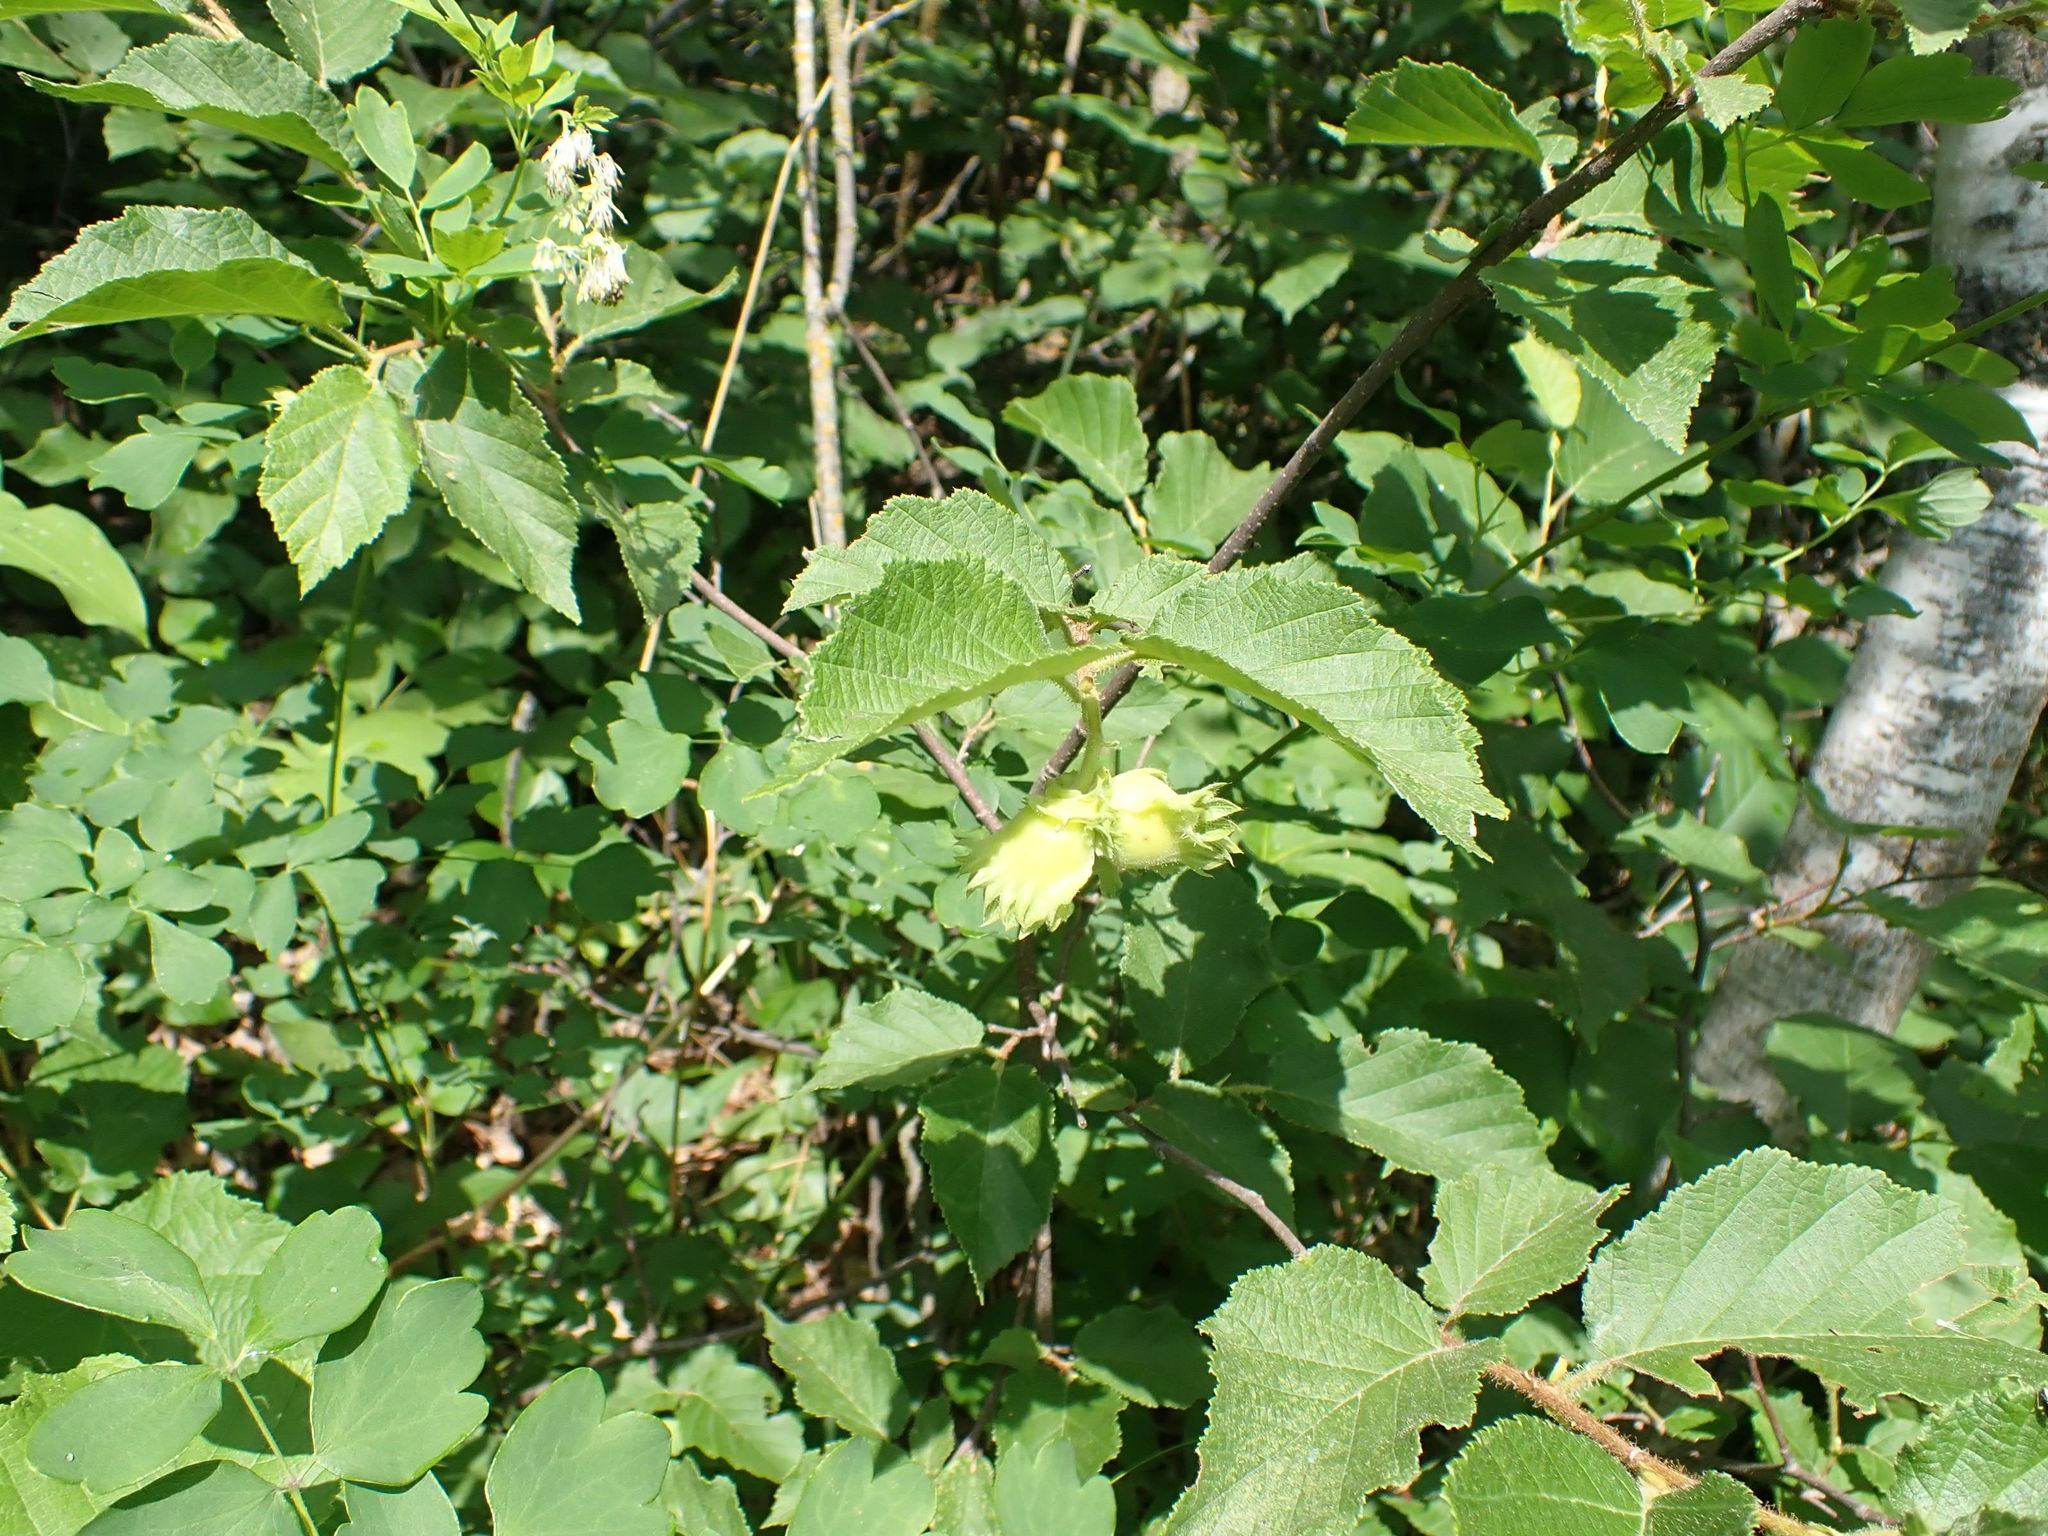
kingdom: Plantae
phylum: Tracheophyta
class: Magnoliopsida
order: Fagales
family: Betulaceae
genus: Corylus
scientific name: Corylus americana
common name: American hazel
